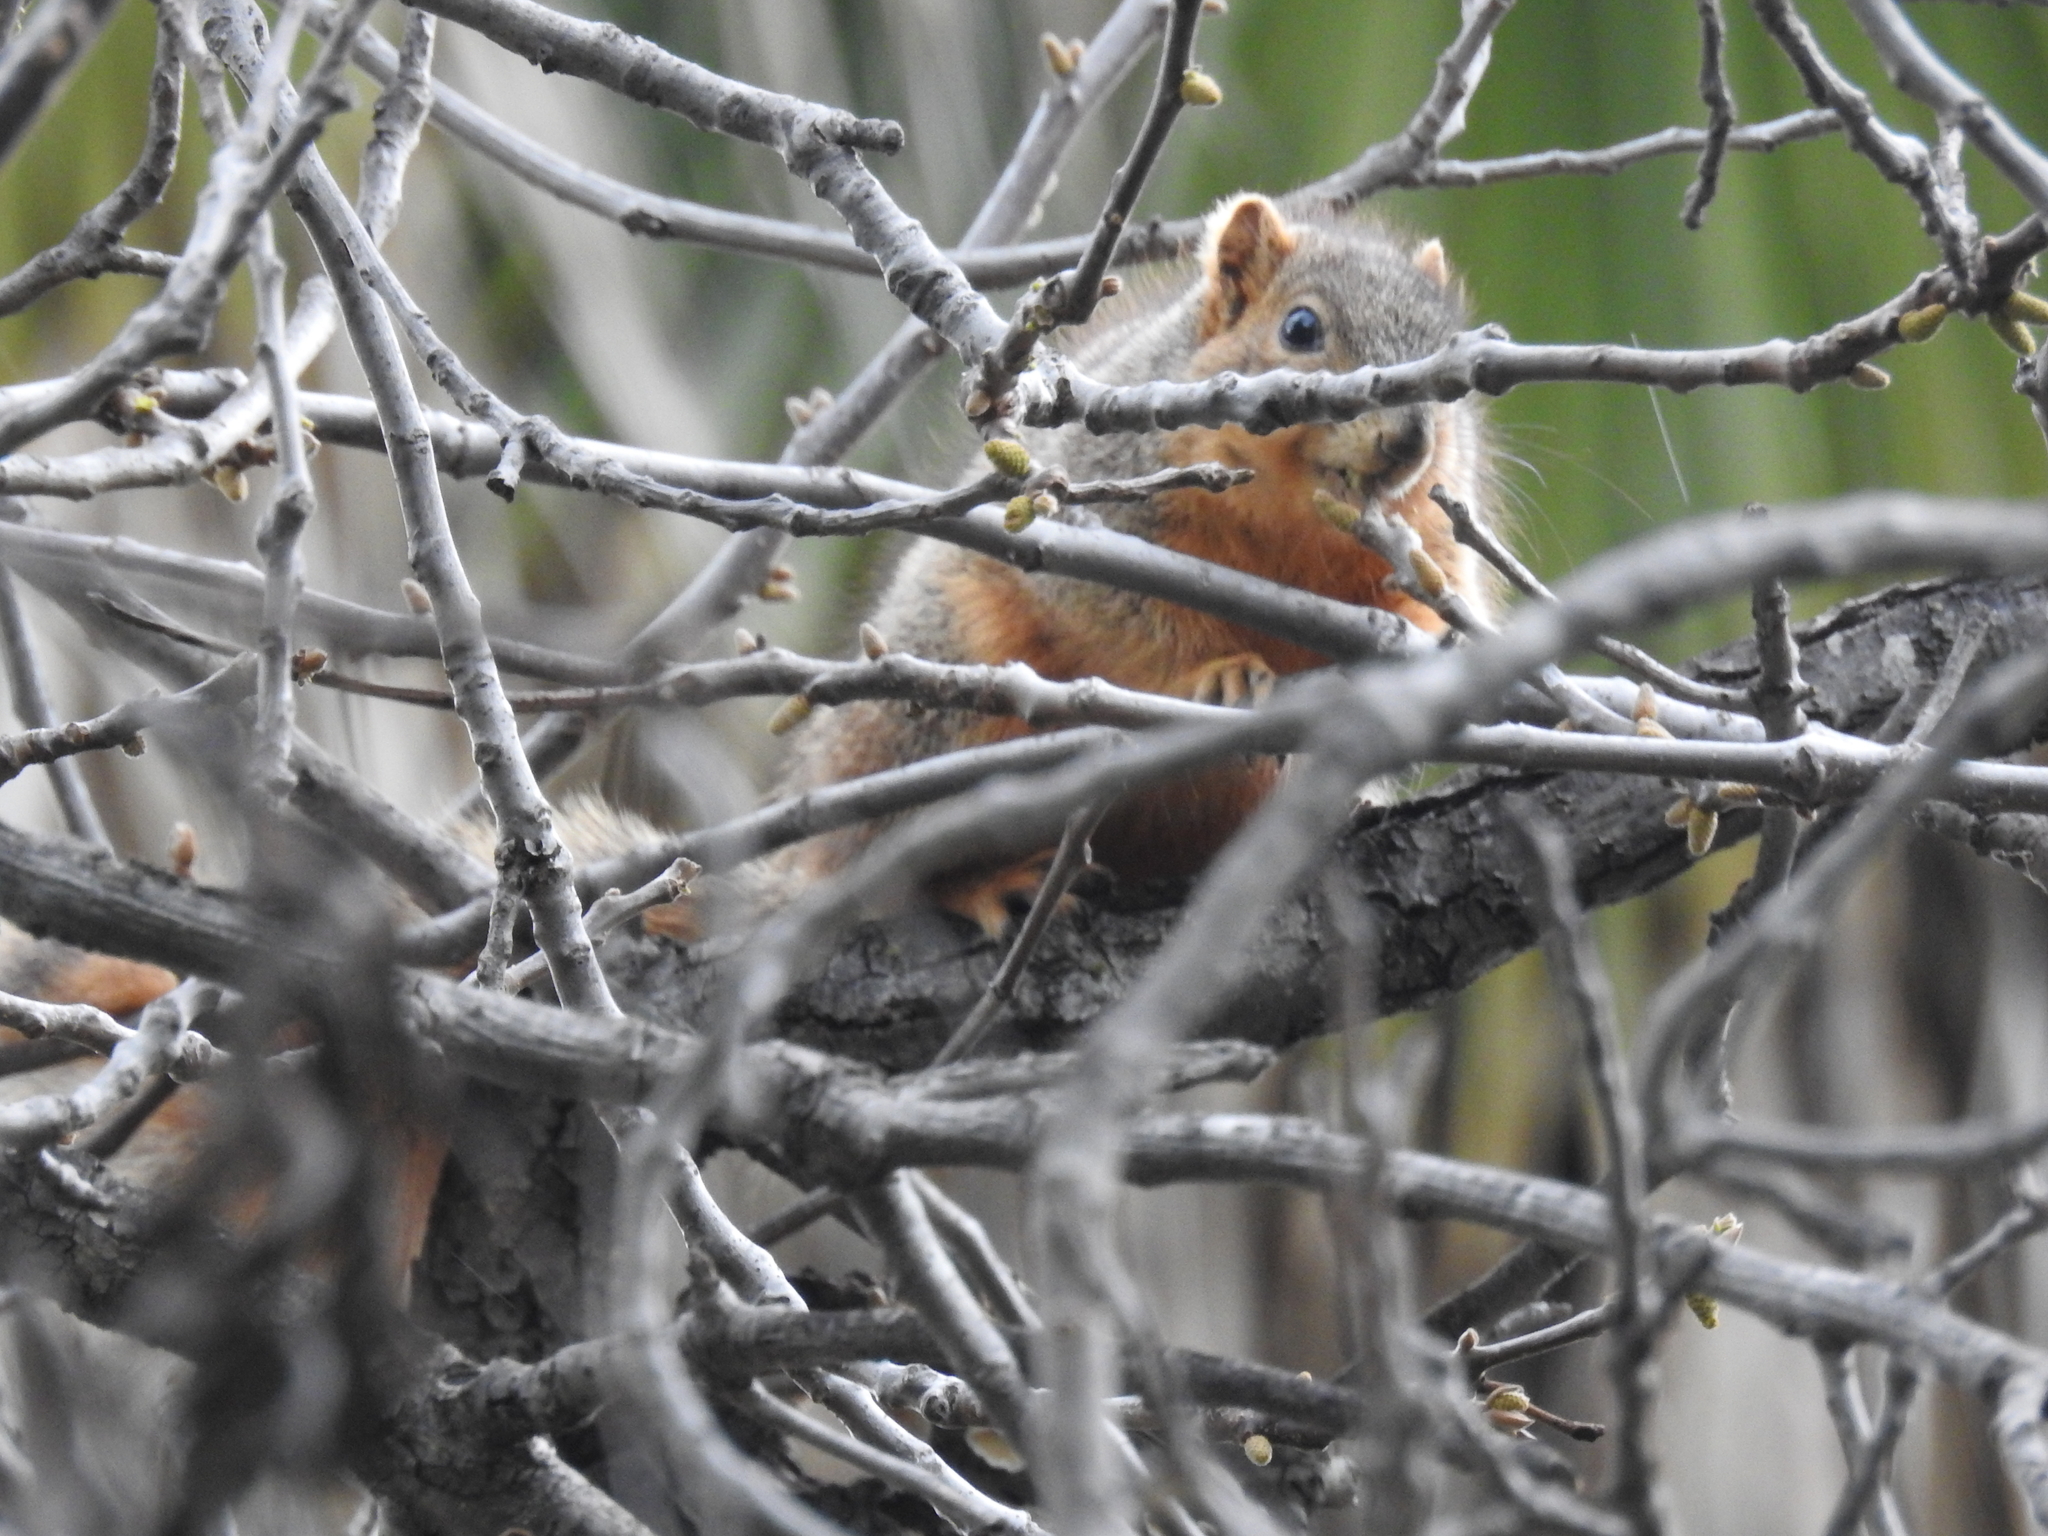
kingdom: Animalia
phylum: Chordata
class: Mammalia
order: Rodentia
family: Sciuridae
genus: Sciurus
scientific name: Sciurus niger
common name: Fox squirrel
